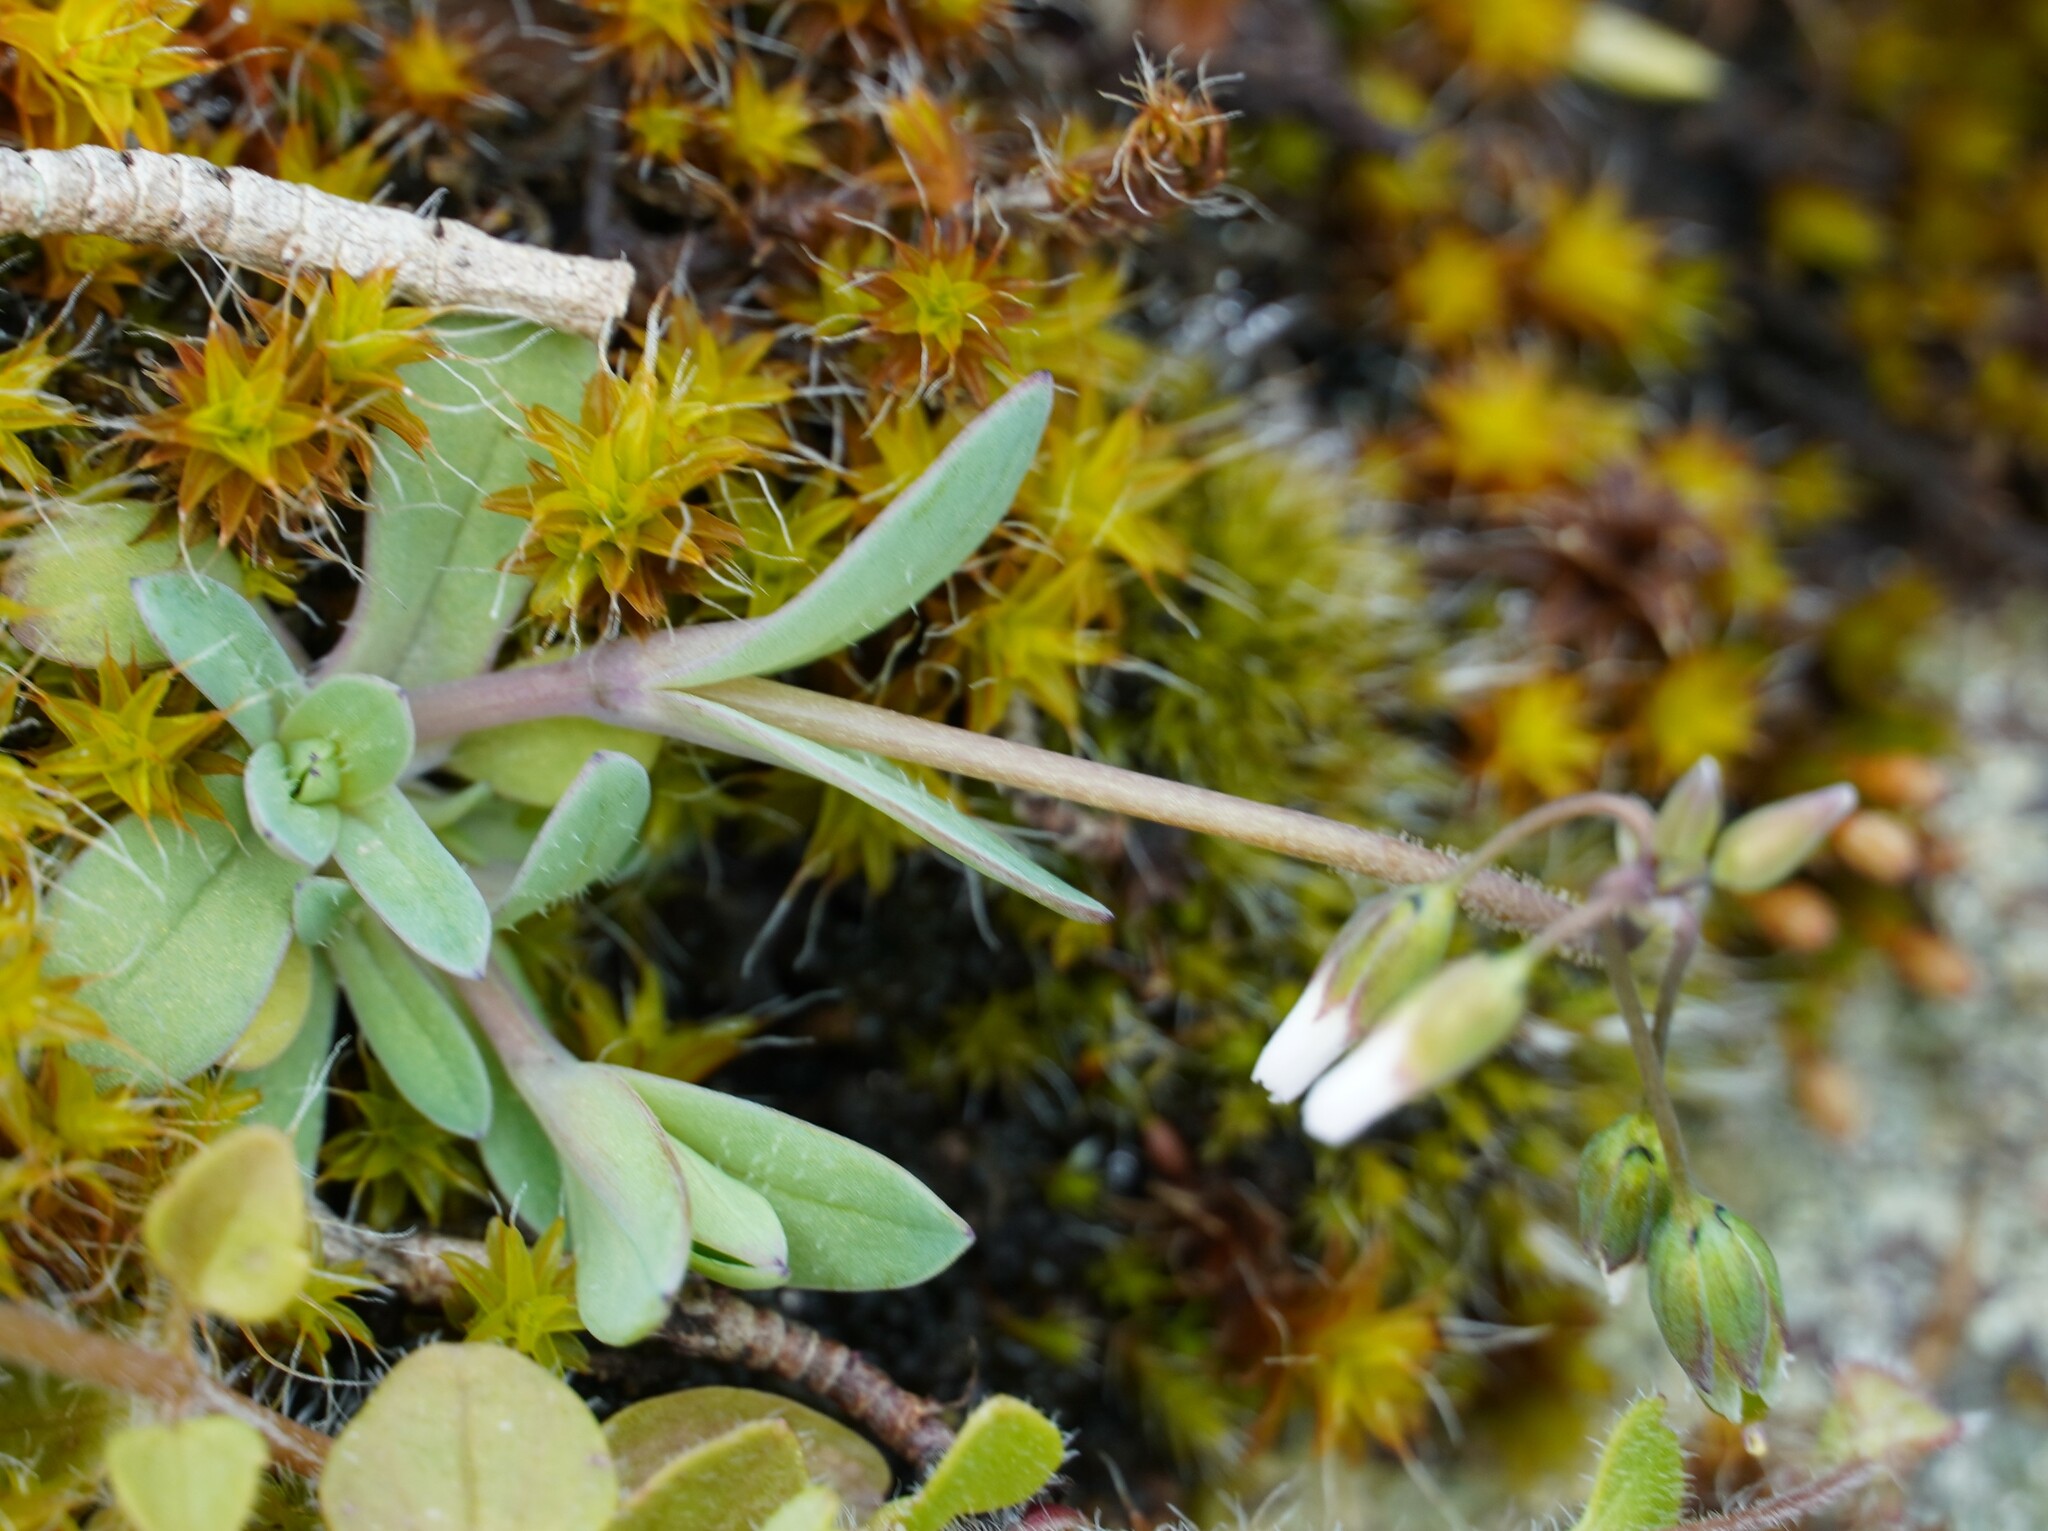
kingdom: Plantae
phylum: Tracheophyta
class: Magnoliopsida
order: Caryophyllales
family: Caryophyllaceae
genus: Holosteum
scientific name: Holosteum umbellatum
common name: Jagged chickweed
